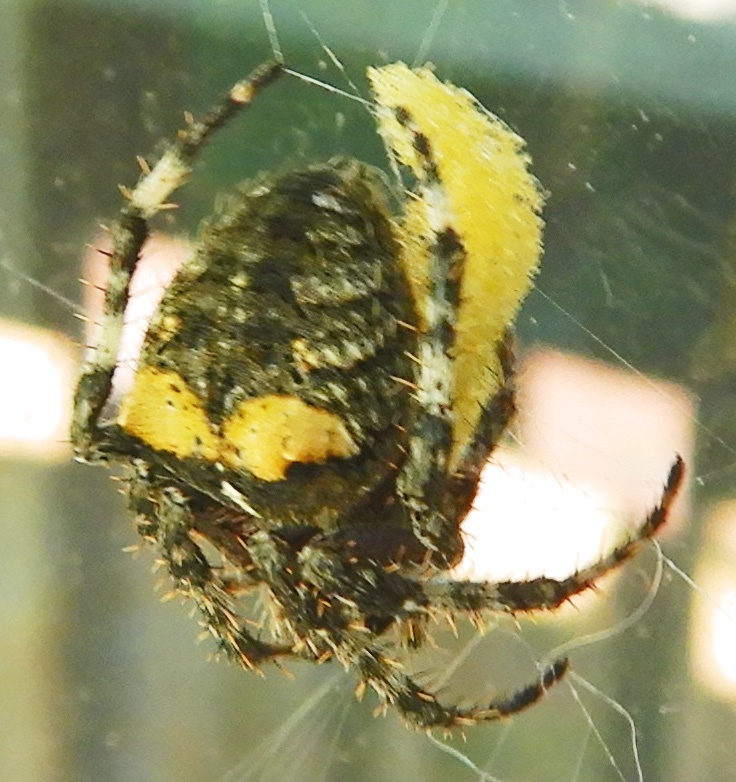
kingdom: Animalia
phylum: Arthropoda
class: Arachnida
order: Araneae
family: Araneidae
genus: Araneus
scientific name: Araneus saevus
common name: Fierce orbweaver
